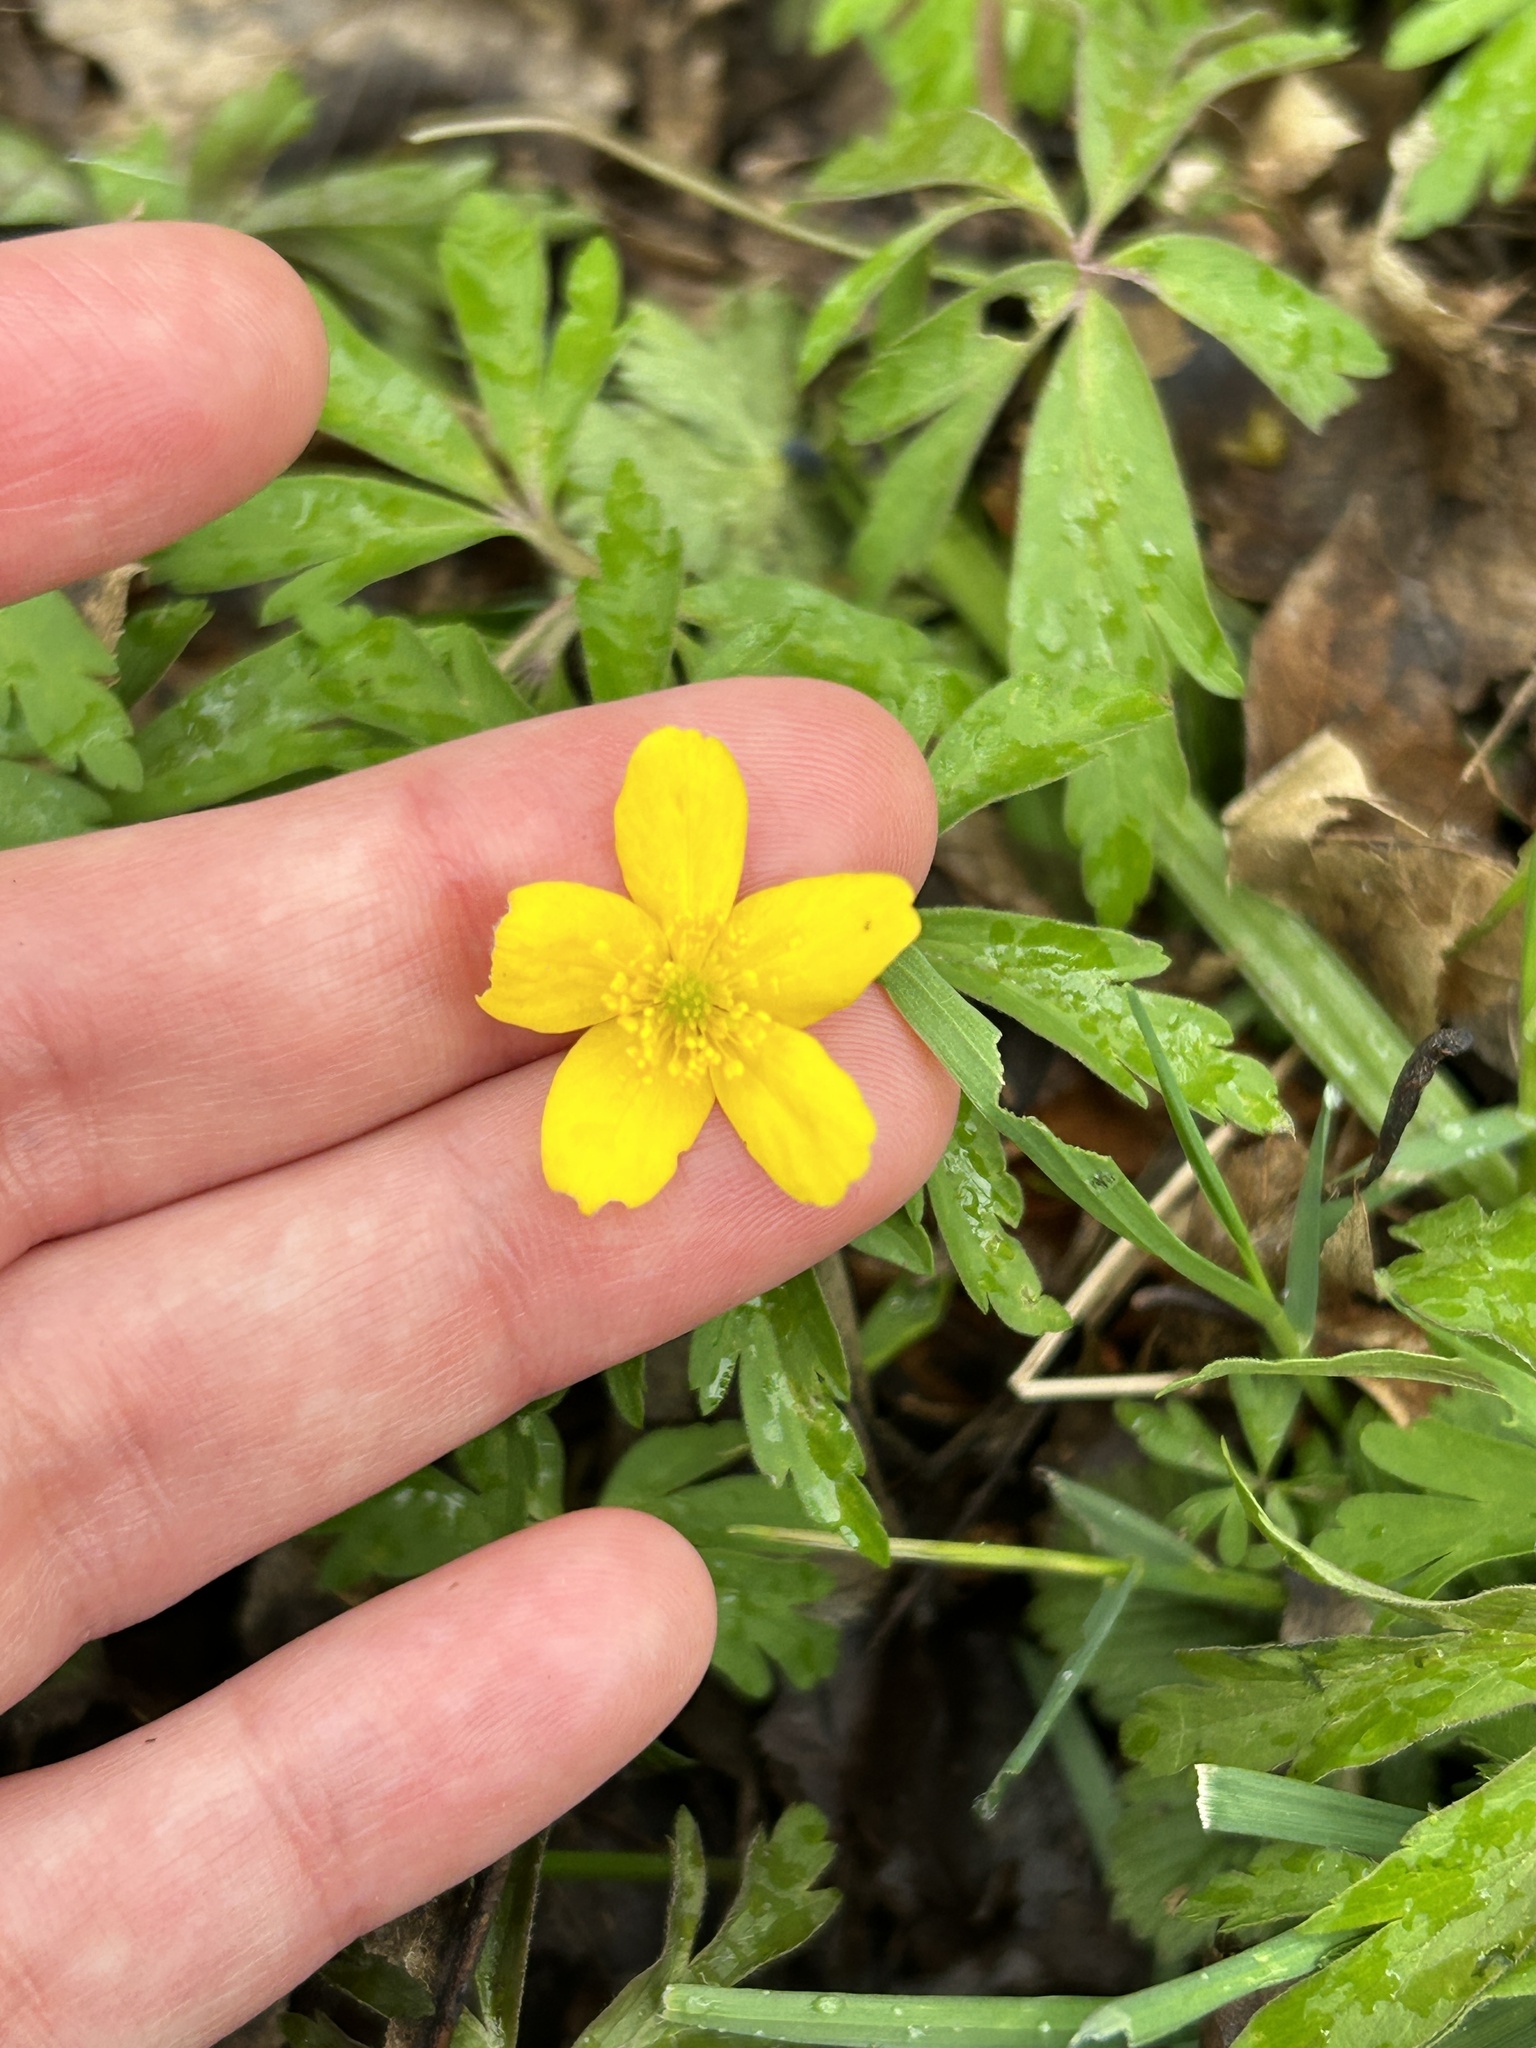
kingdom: Plantae
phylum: Tracheophyta
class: Magnoliopsida
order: Ranunculales
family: Ranunculaceae
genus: Anemone
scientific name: Anemone ranunculoides
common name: Yellow anemone
